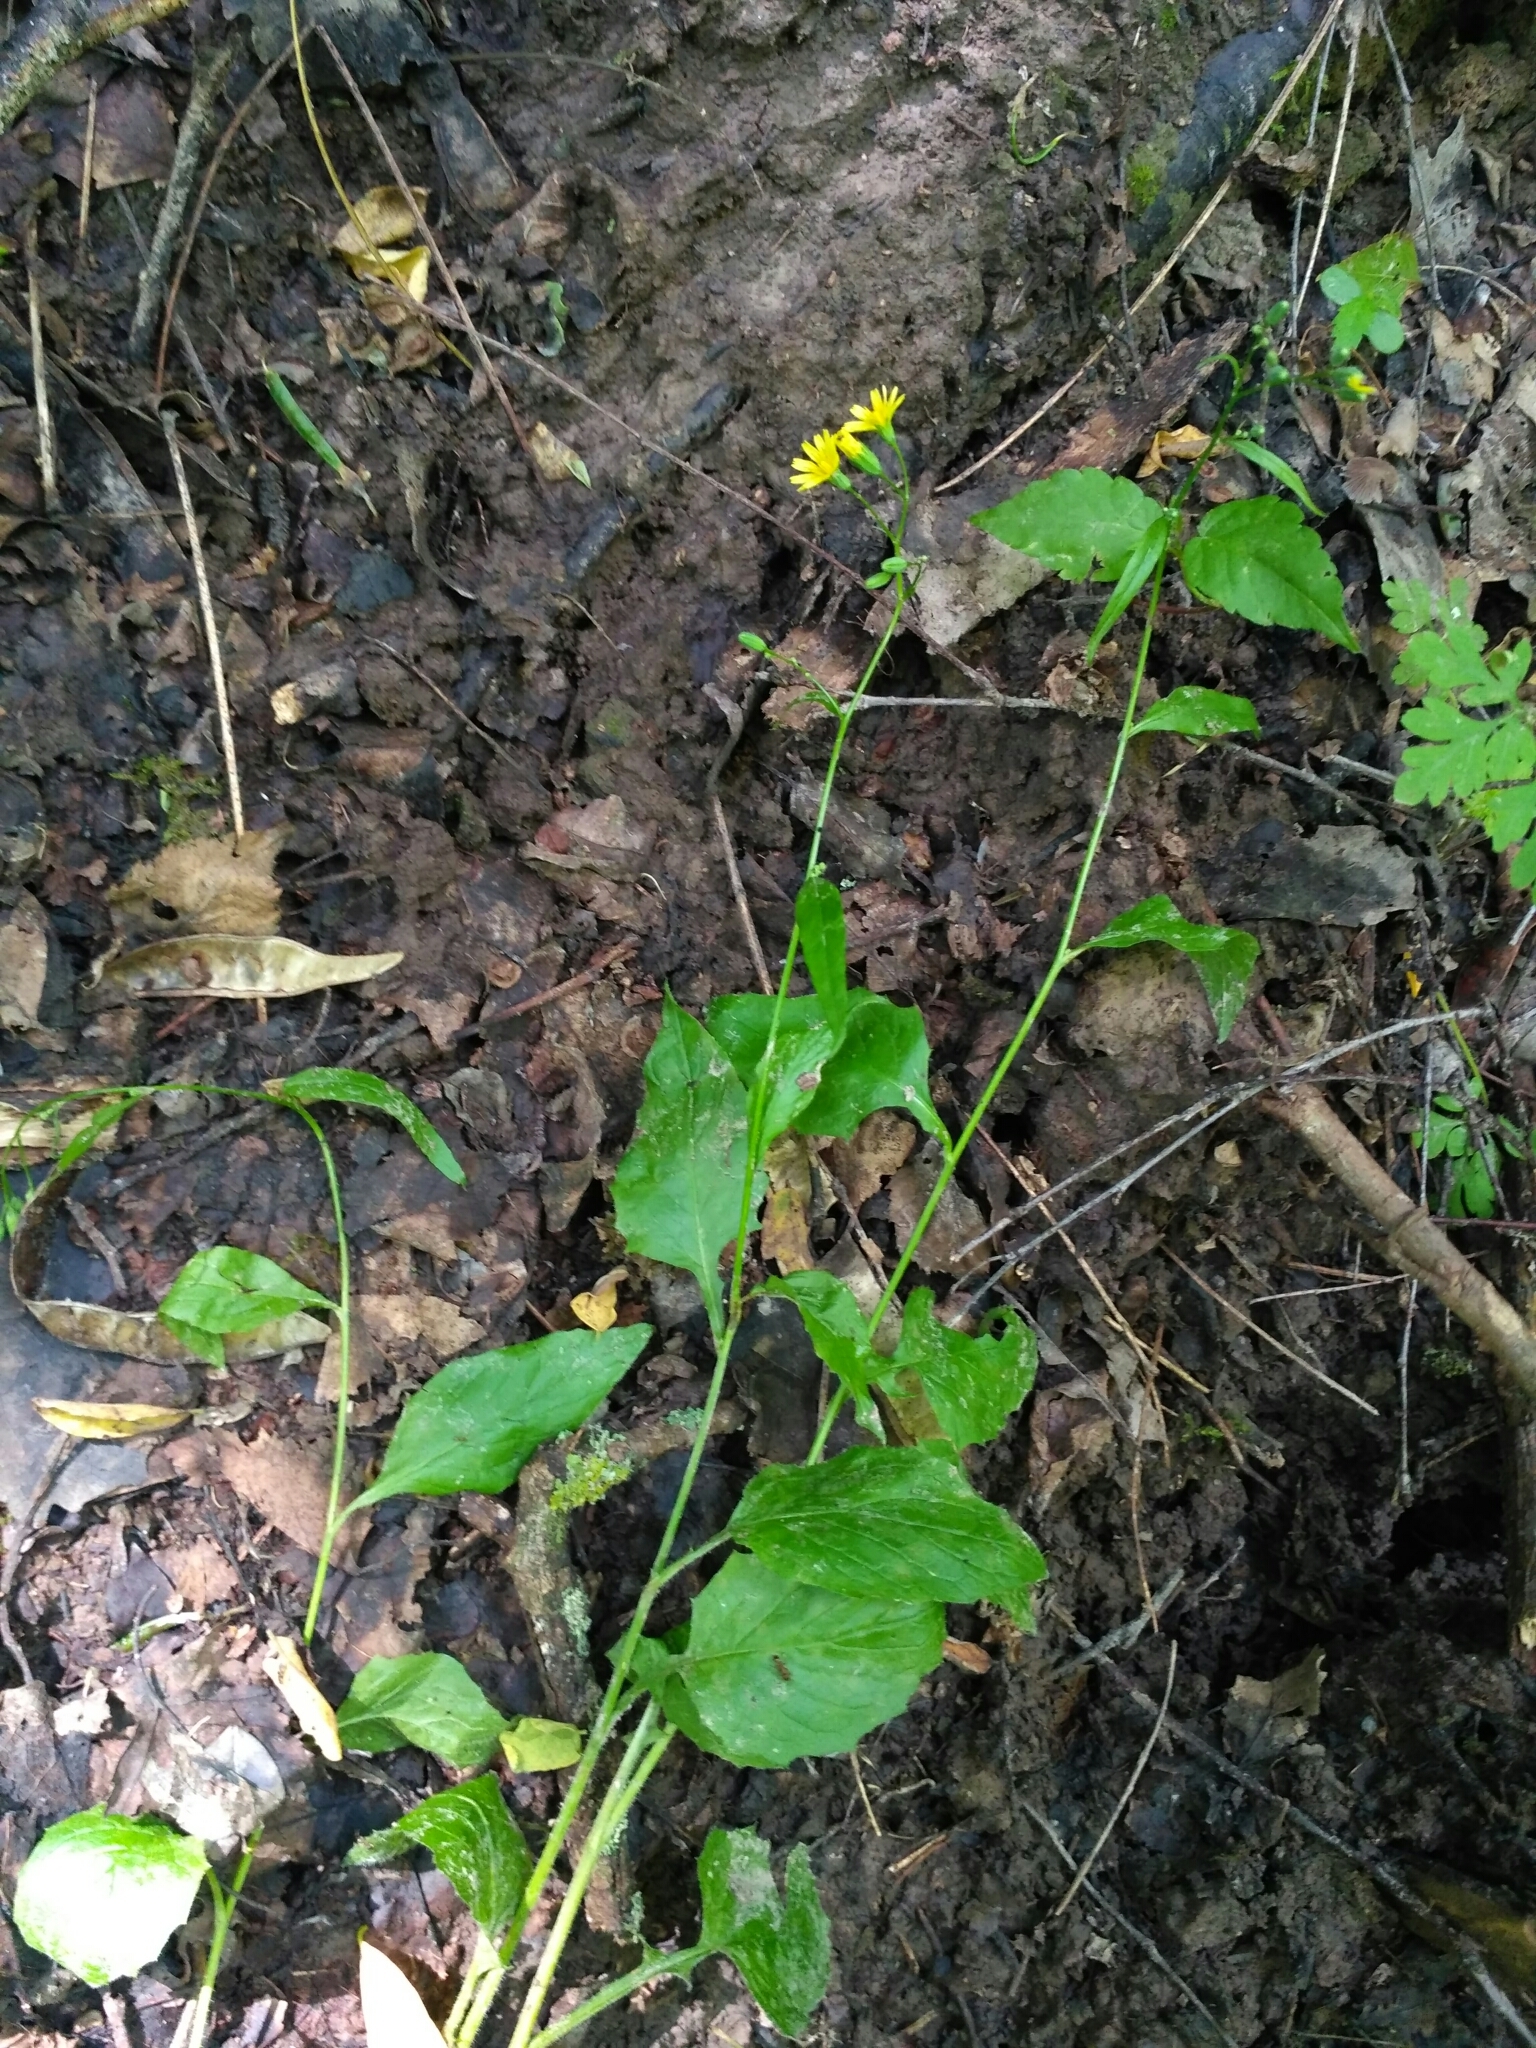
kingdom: Plantae
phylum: Tracheophyta
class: Magnoliopsida
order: Asterales
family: Asteraceae
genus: Lapsana
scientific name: Lapsana communis
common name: Nipplewort
